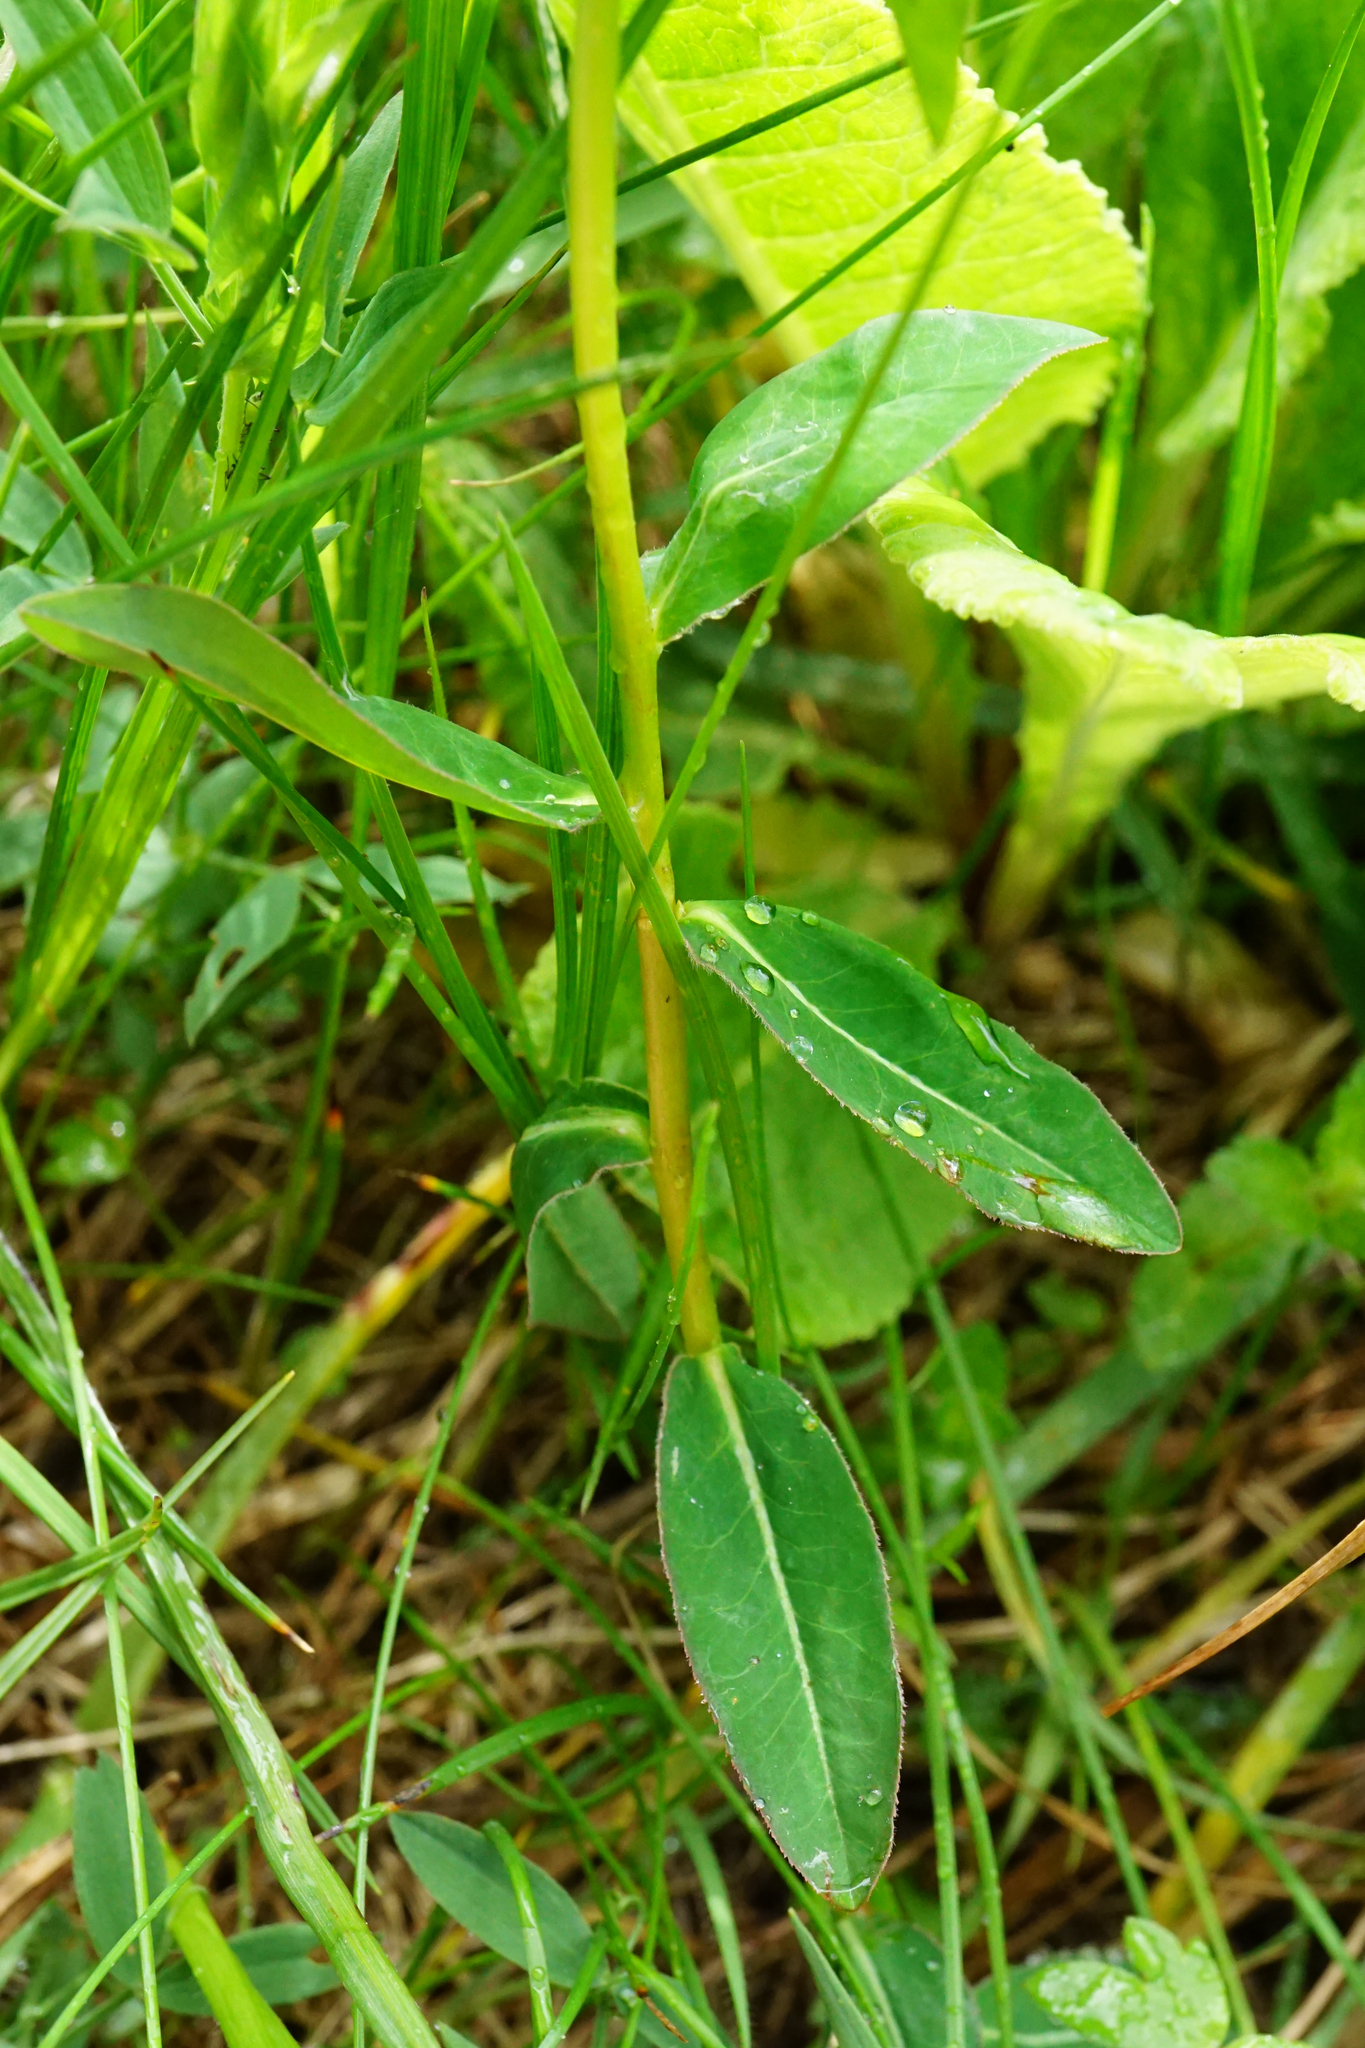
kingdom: Plantae
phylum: Tracheophyta
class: Magnoliopsida
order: Malpighiales
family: Euphorbiaceae
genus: Euphorbia
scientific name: Euphorbia verrucosa
